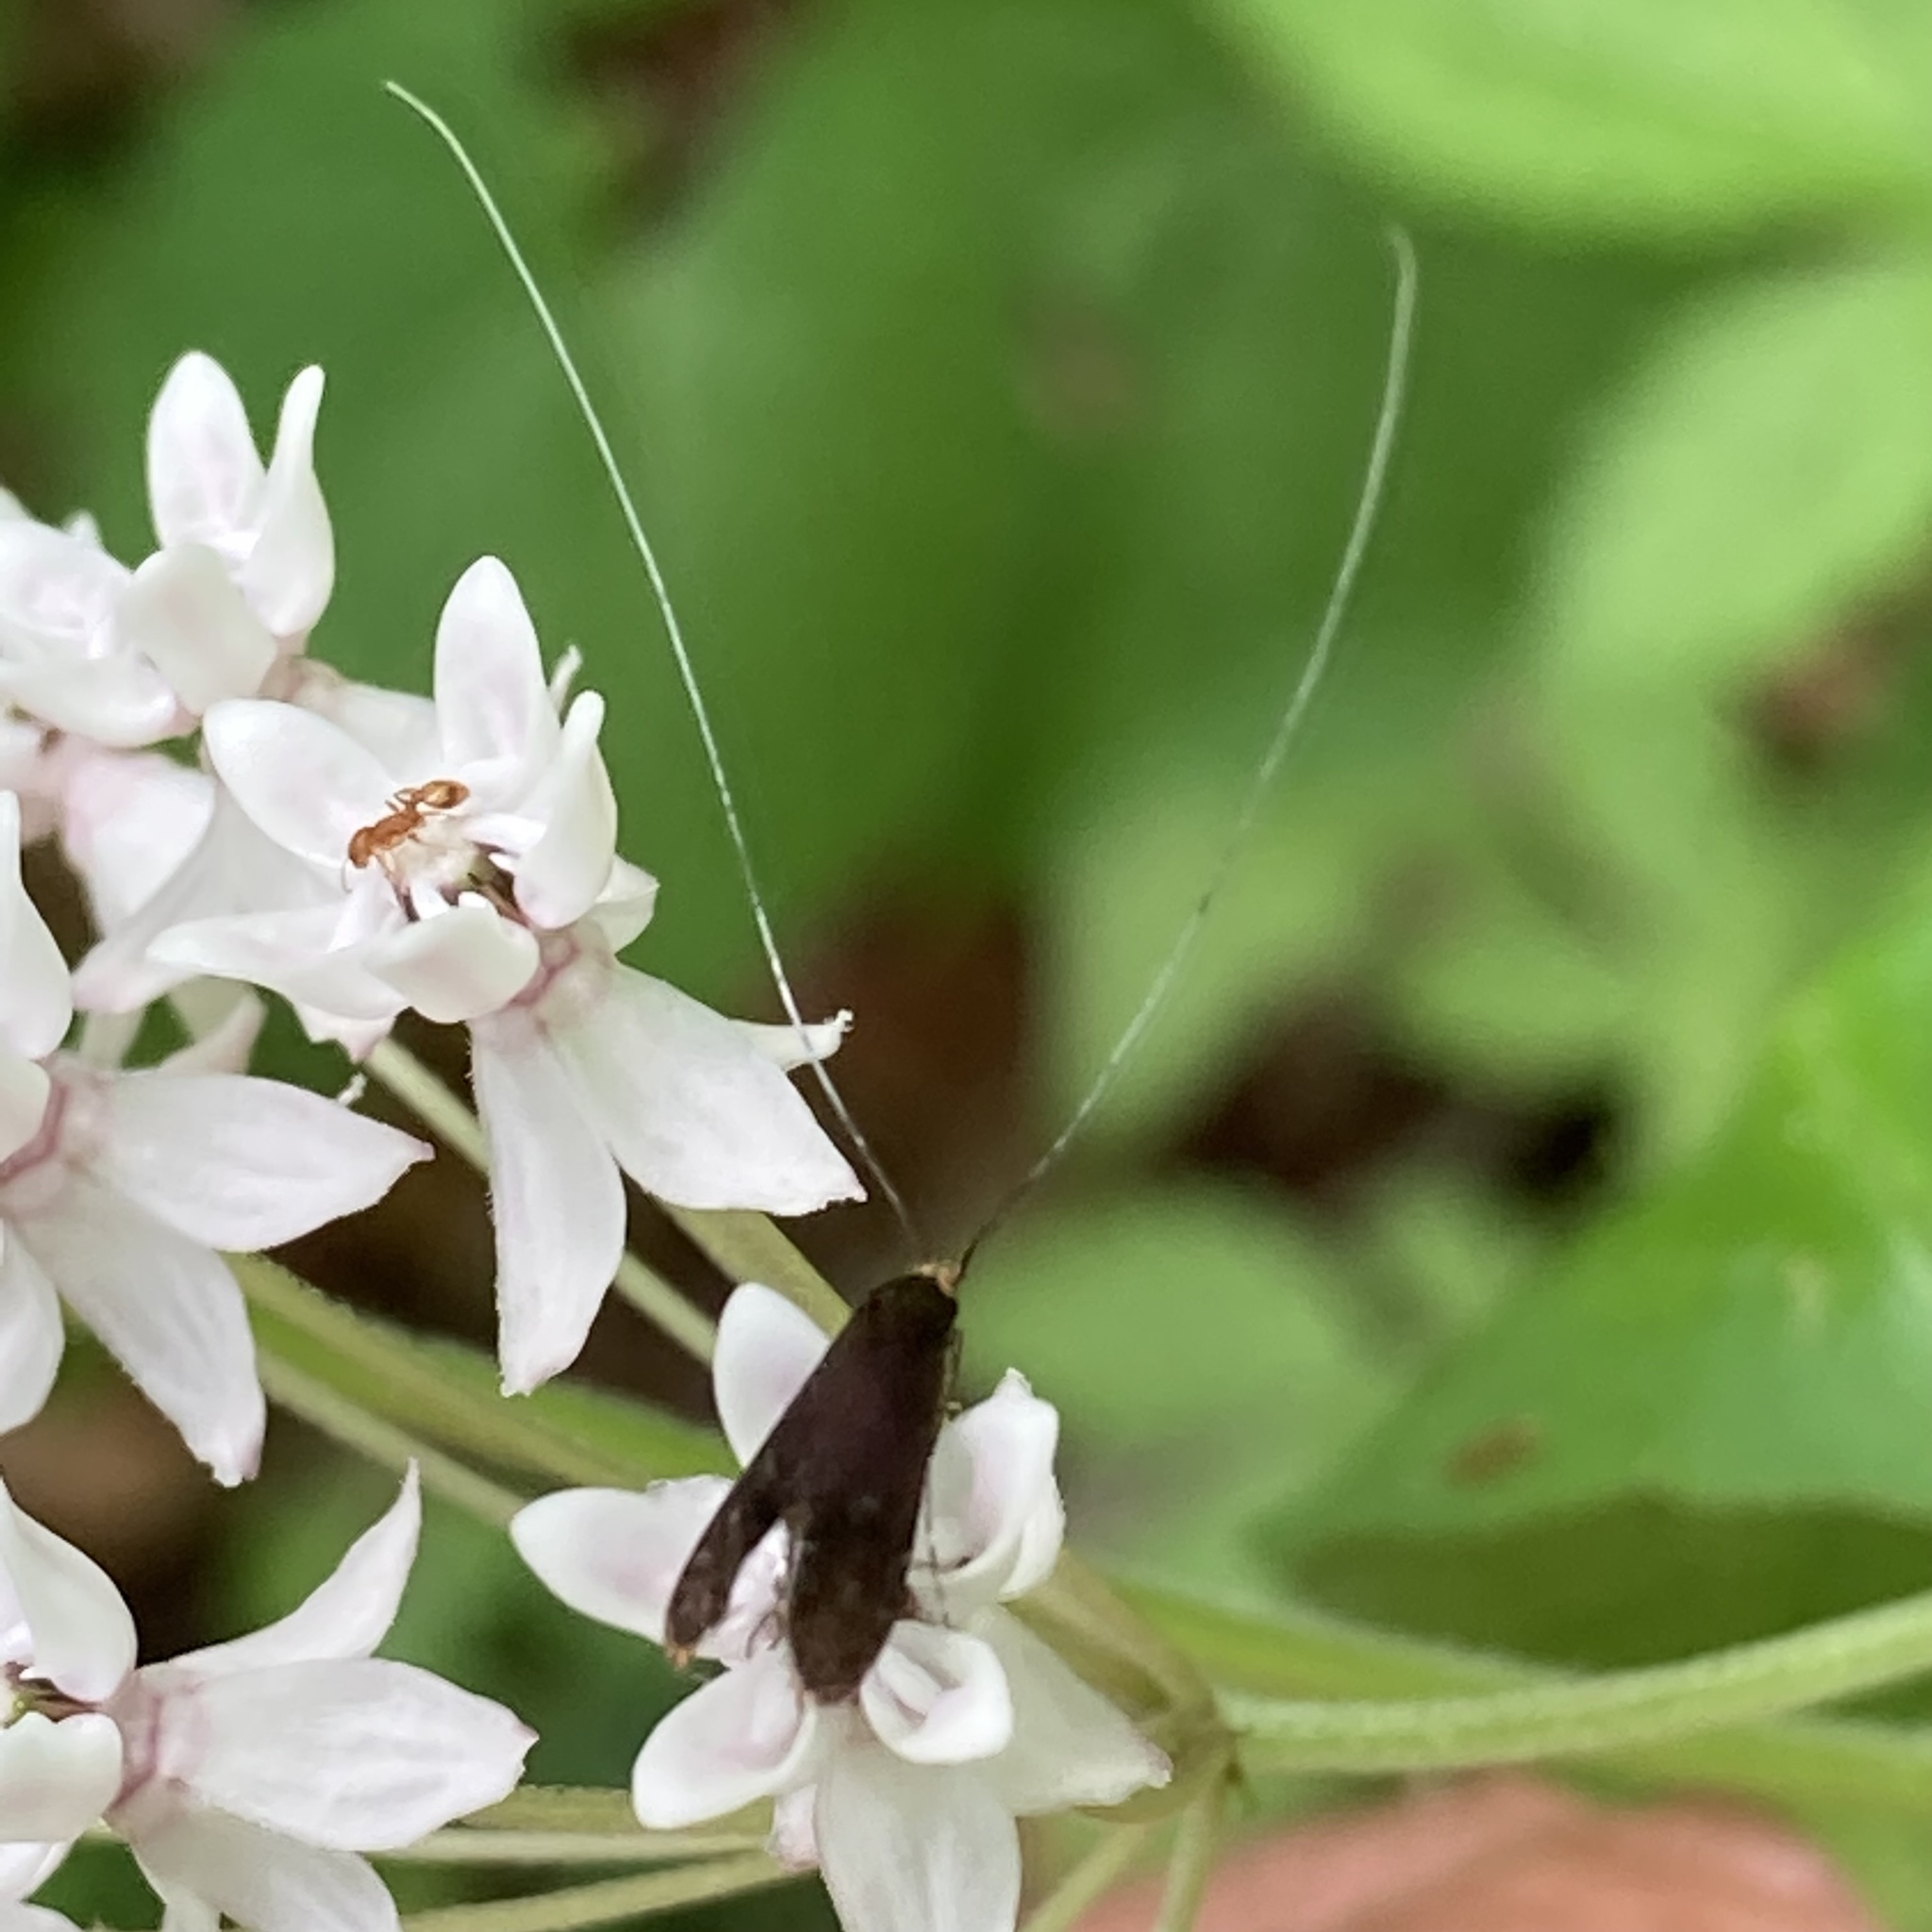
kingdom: Animalia
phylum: Arthropoda
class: Insecta
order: Lepidoptera
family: Adelidae
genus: Adela
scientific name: Adela caeruleella
